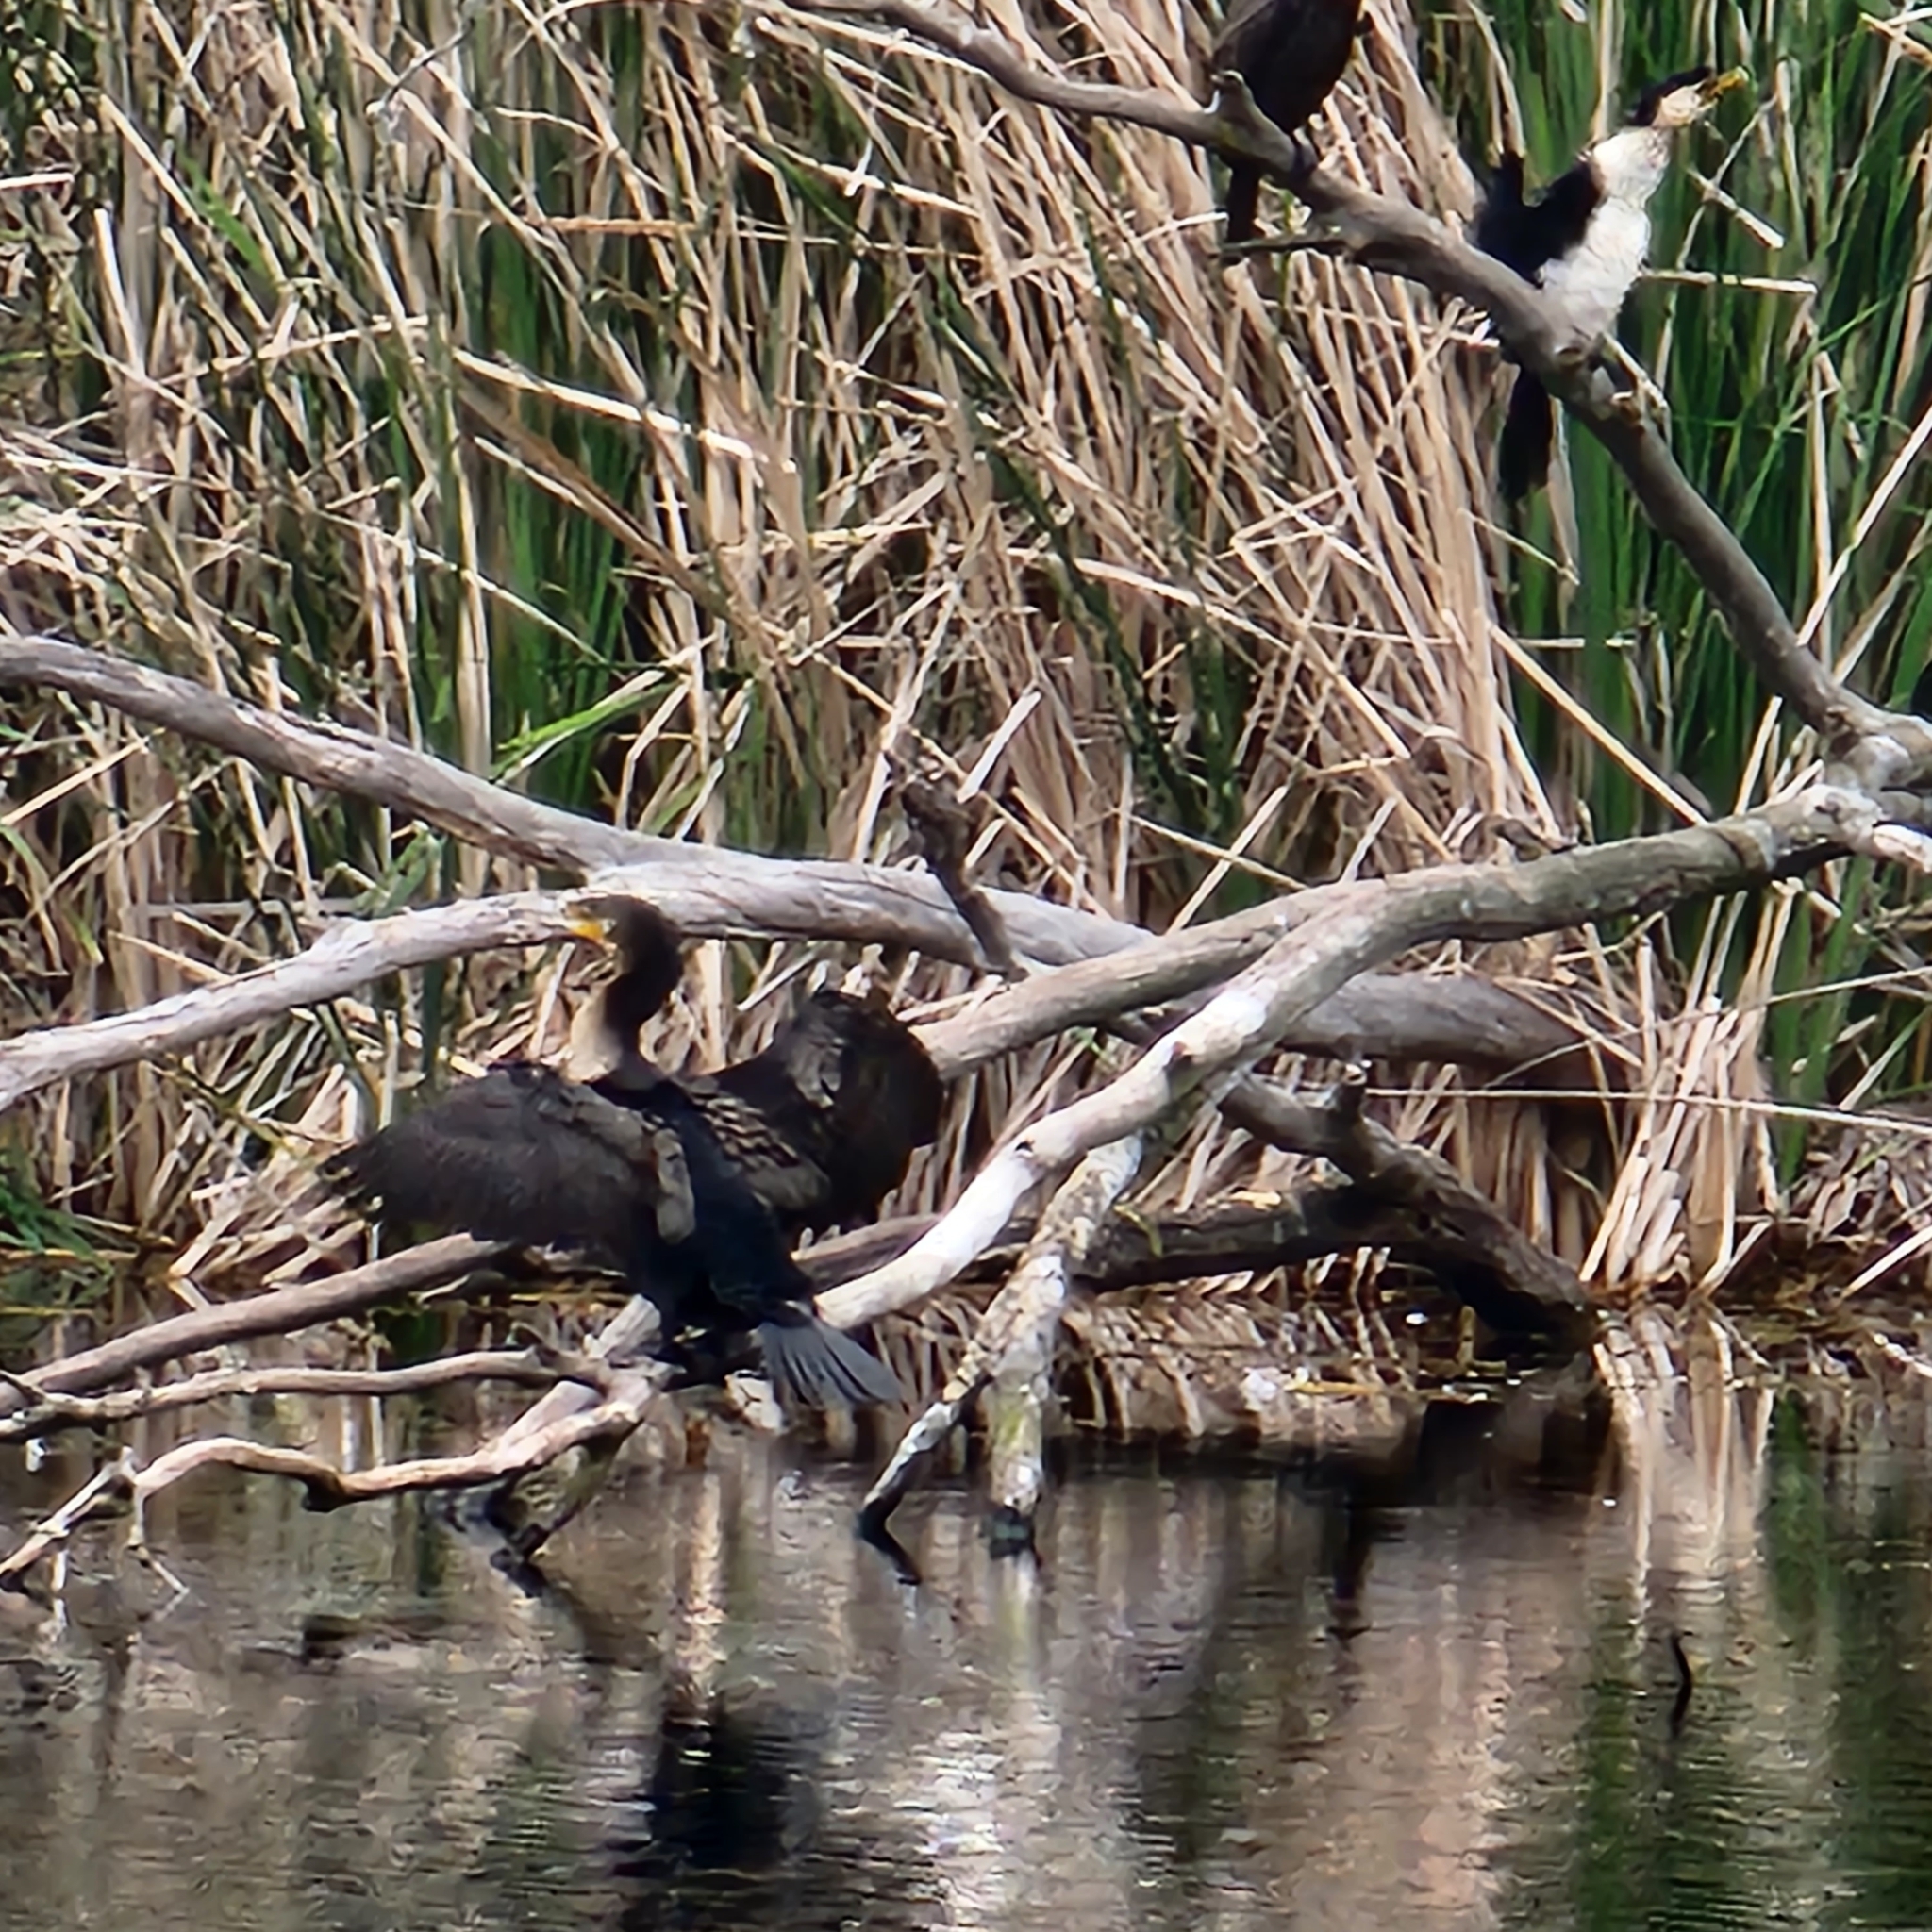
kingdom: Animalia
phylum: Chordata
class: Aves
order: Suliformes
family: Phalacrocoracidae
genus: Phalacrocorax
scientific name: Phalacrocorax carbo
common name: Great cormorant
